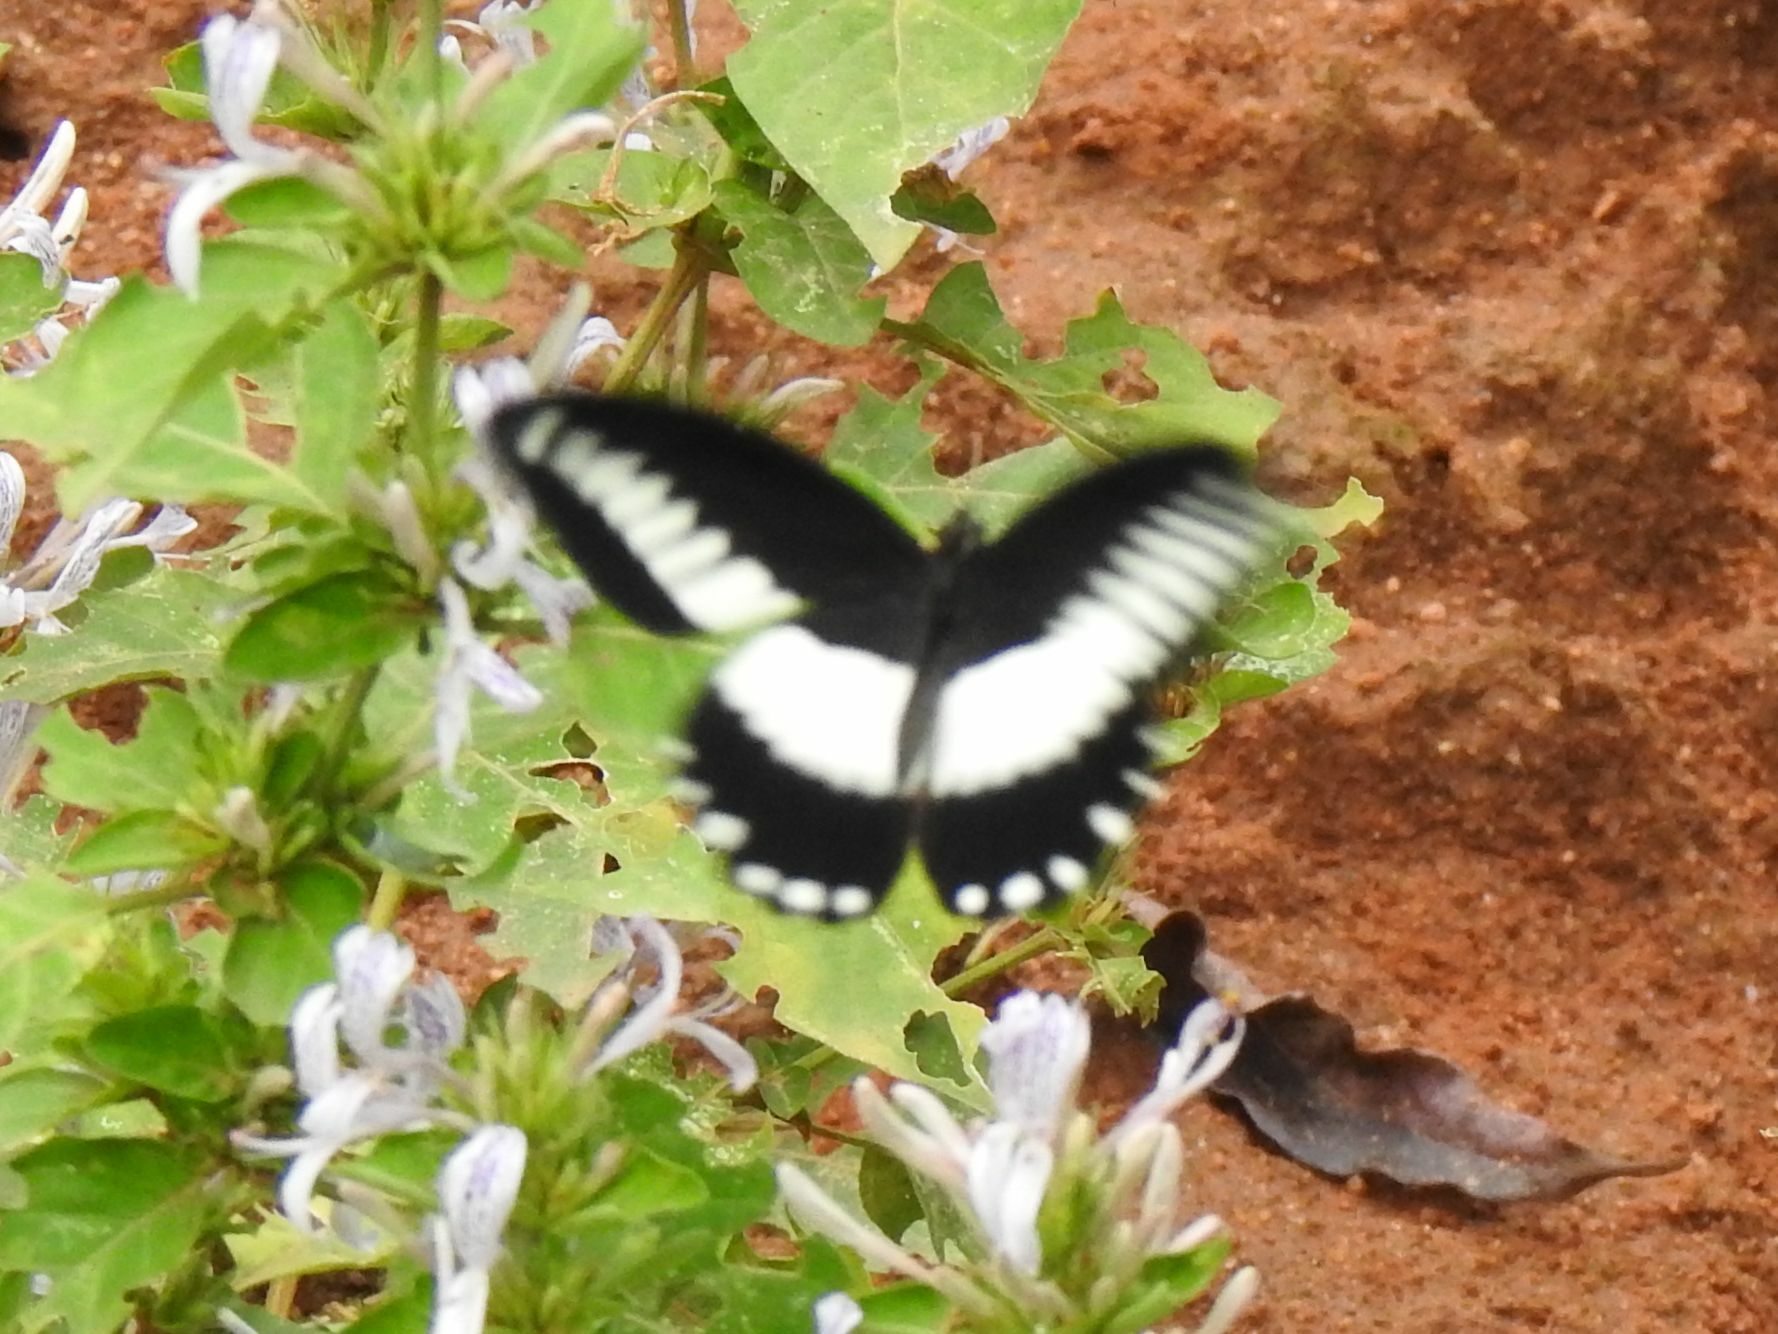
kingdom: Animalia
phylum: Arthropoda
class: Insecta
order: Lepidoptera
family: Papilionidae
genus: Papilio
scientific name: Papilio echerioides
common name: White-banded swallowtail
